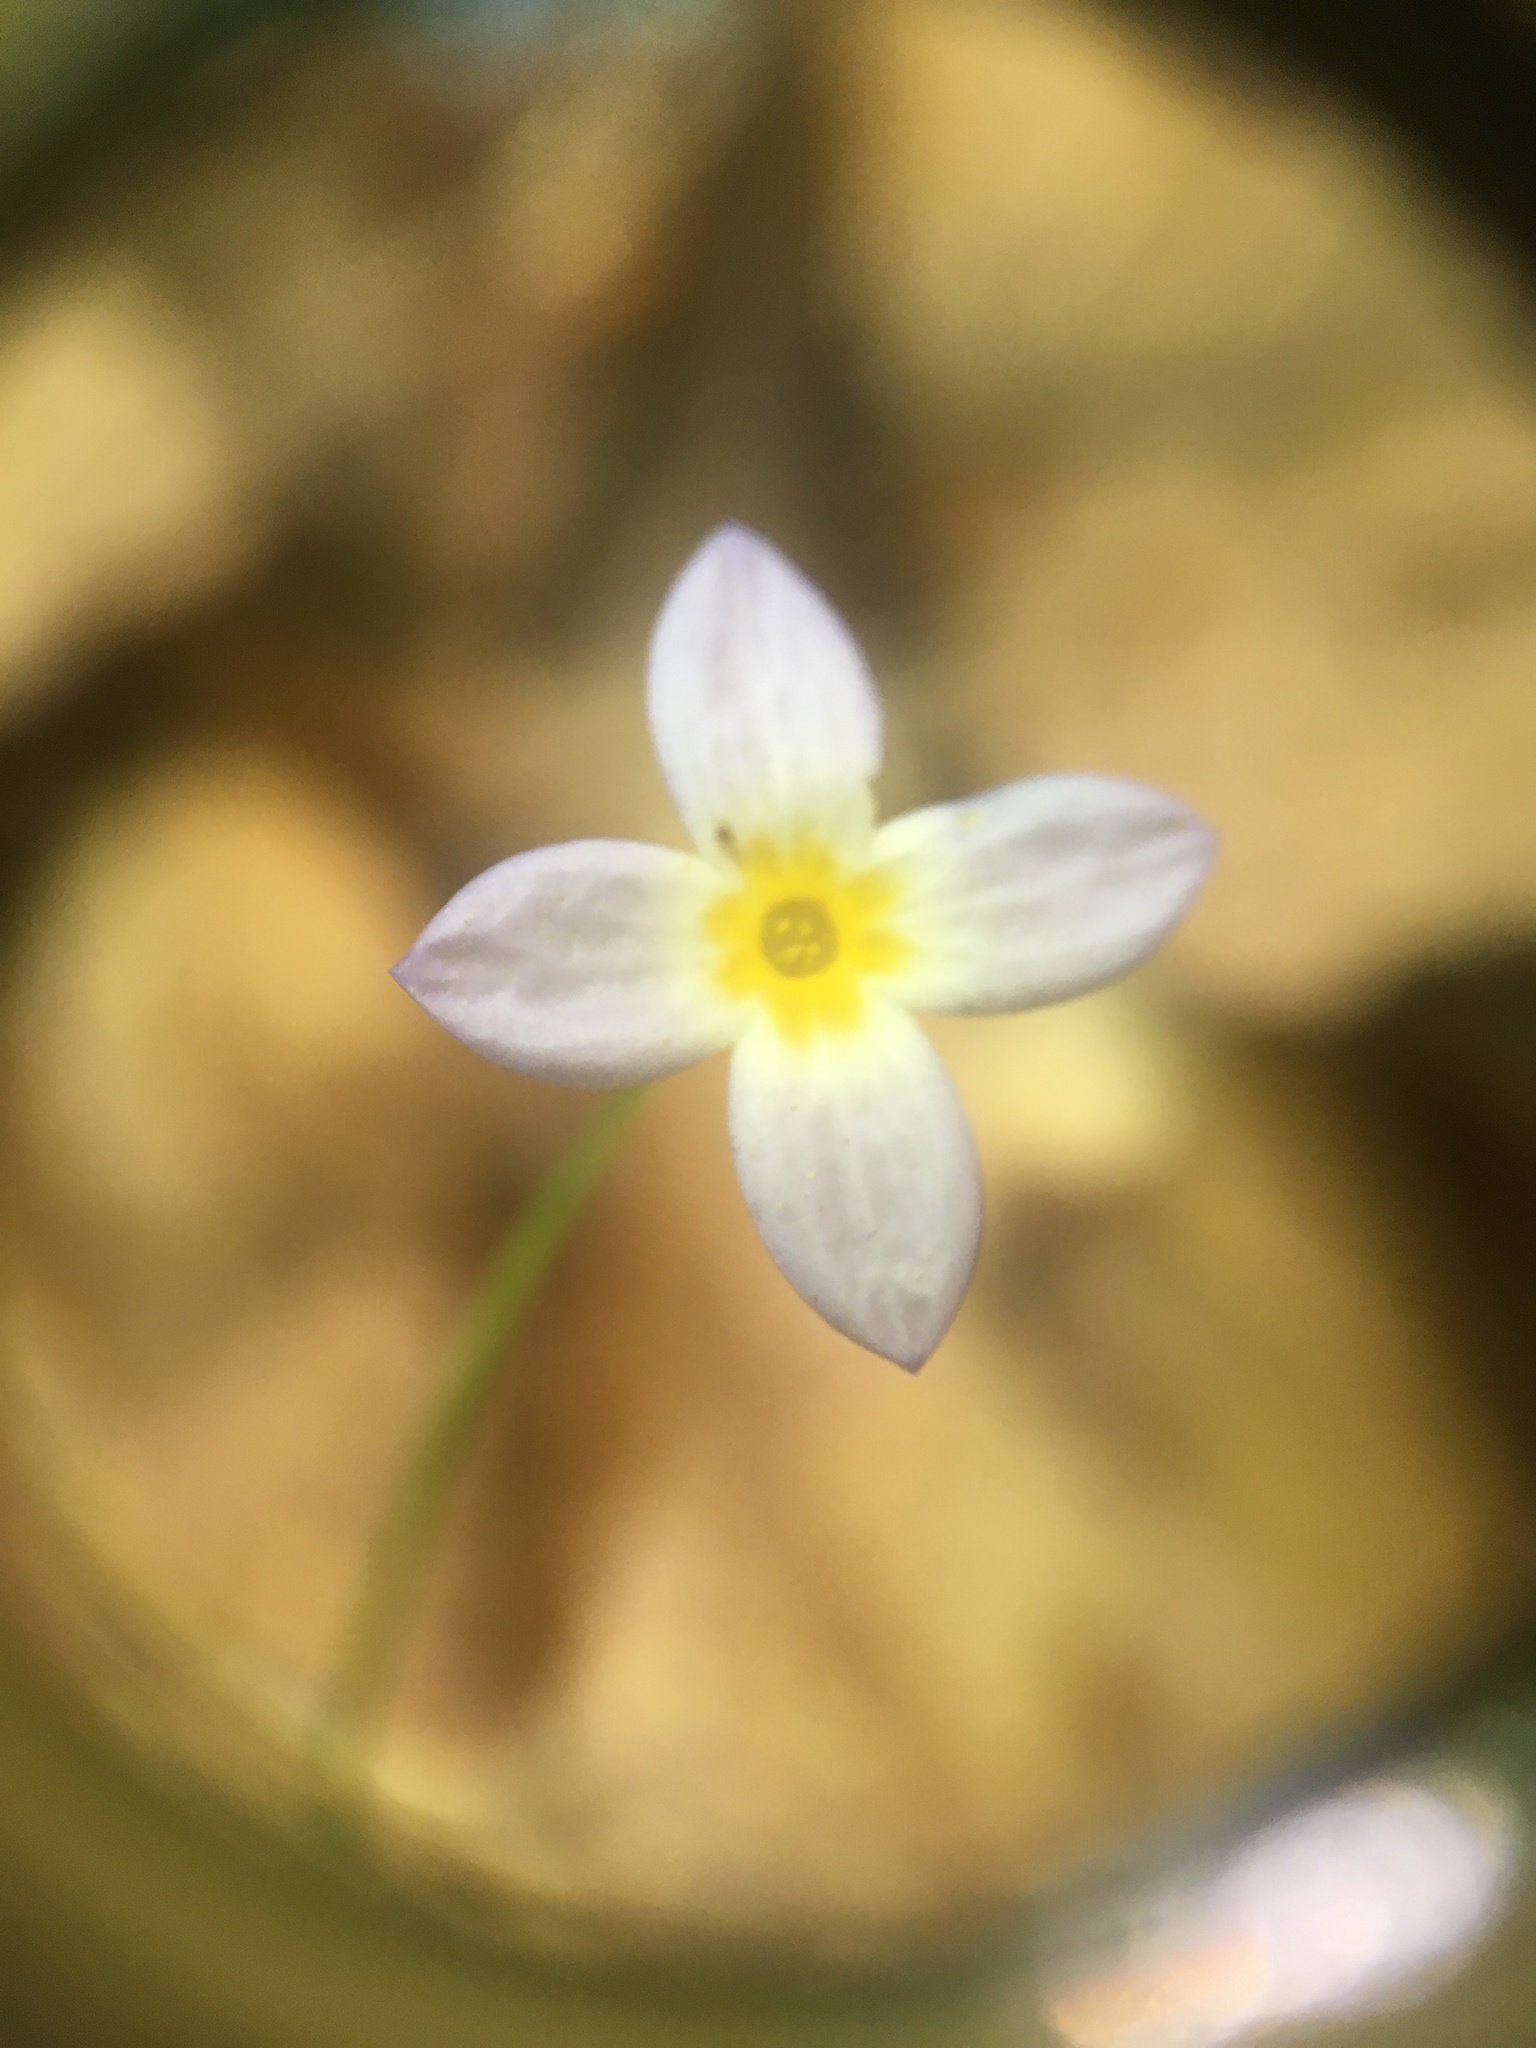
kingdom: Plantae
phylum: Tracheophyta
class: Magnoliopsida
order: Gentianales
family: Rubiaceae
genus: Houstonia
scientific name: Houstonia
